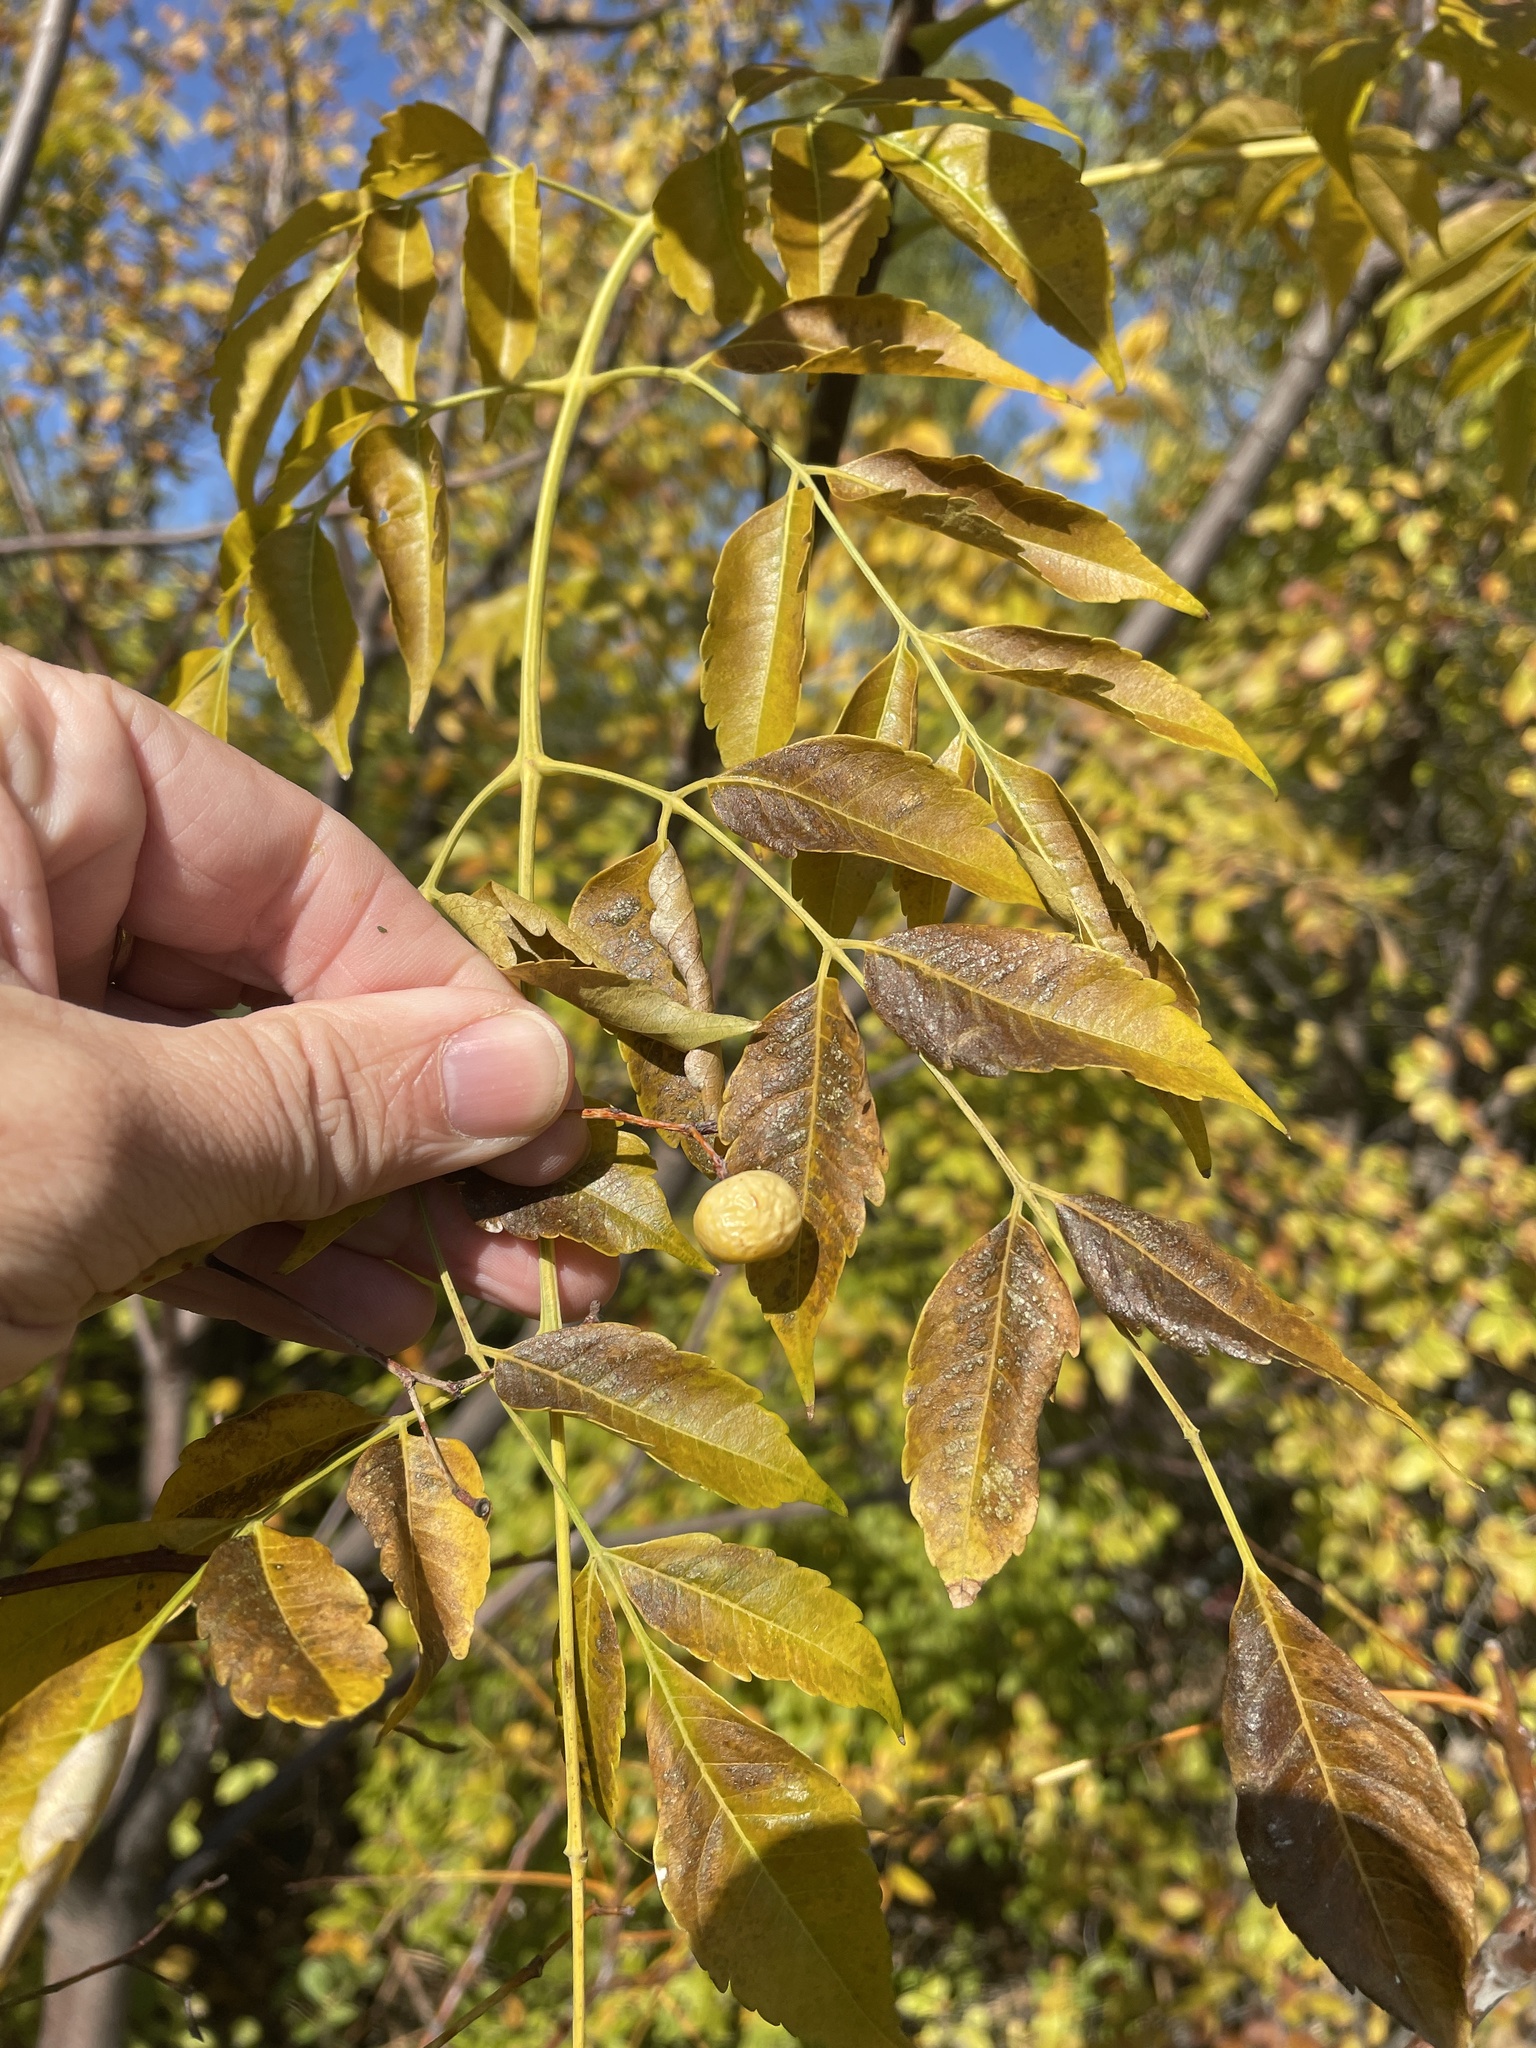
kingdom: Plantae
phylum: Tracheophyta
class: Magnoliopsida
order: Sapindales
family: Meliaceae
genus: Melia
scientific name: Melia azedarach
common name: Chinaberrytree
